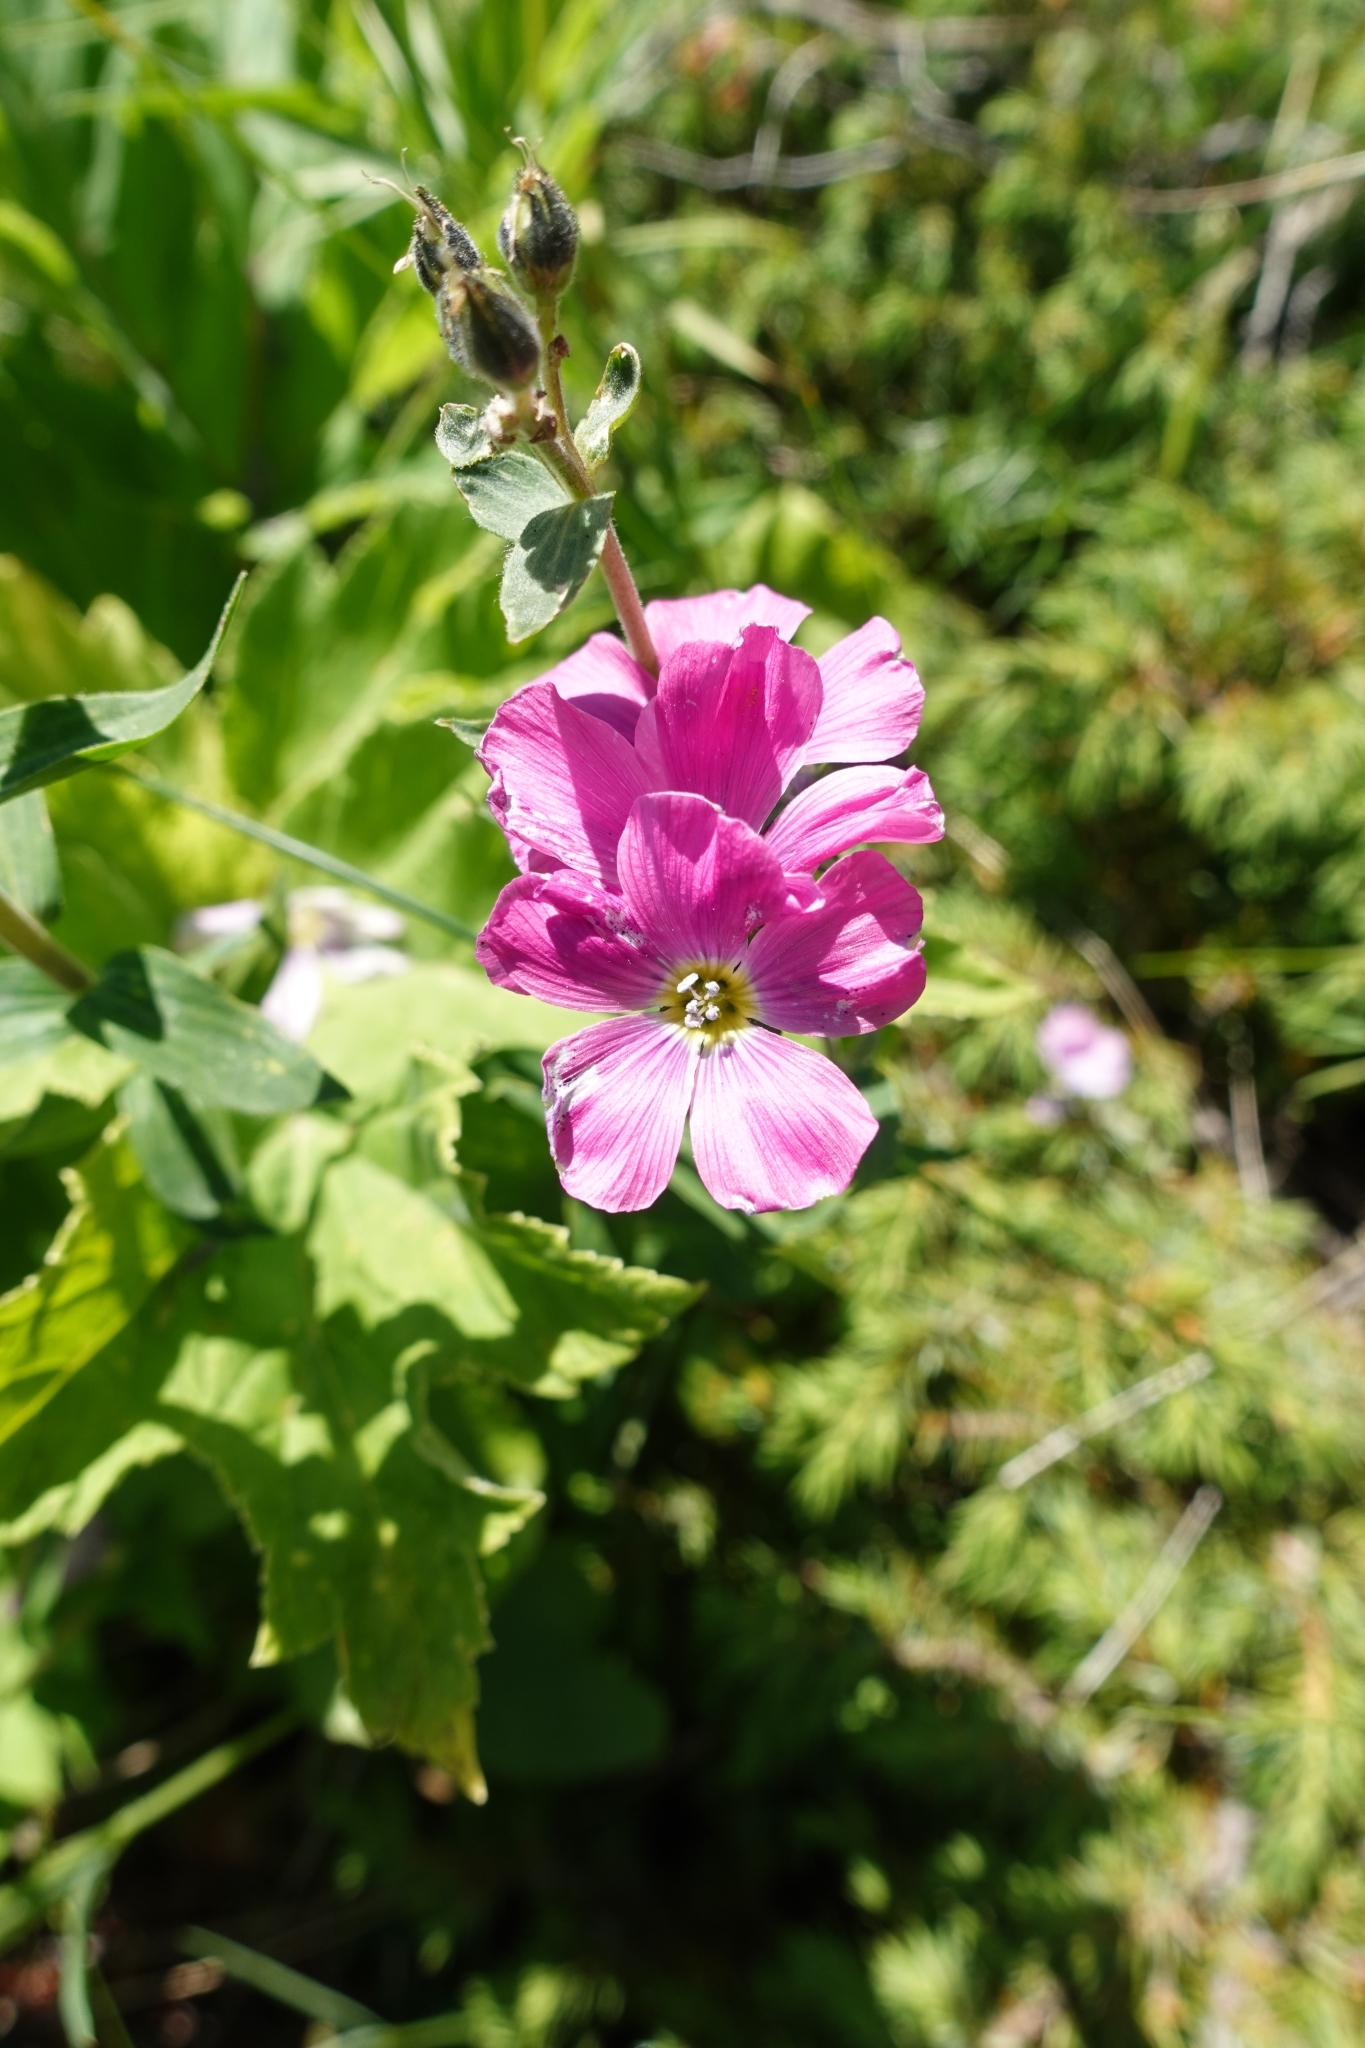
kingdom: Plantae
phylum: Tracheophyta
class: Magnoliopsida
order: Malpighiales
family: Linaceae
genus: Linum
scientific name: Linum hypericifolium
